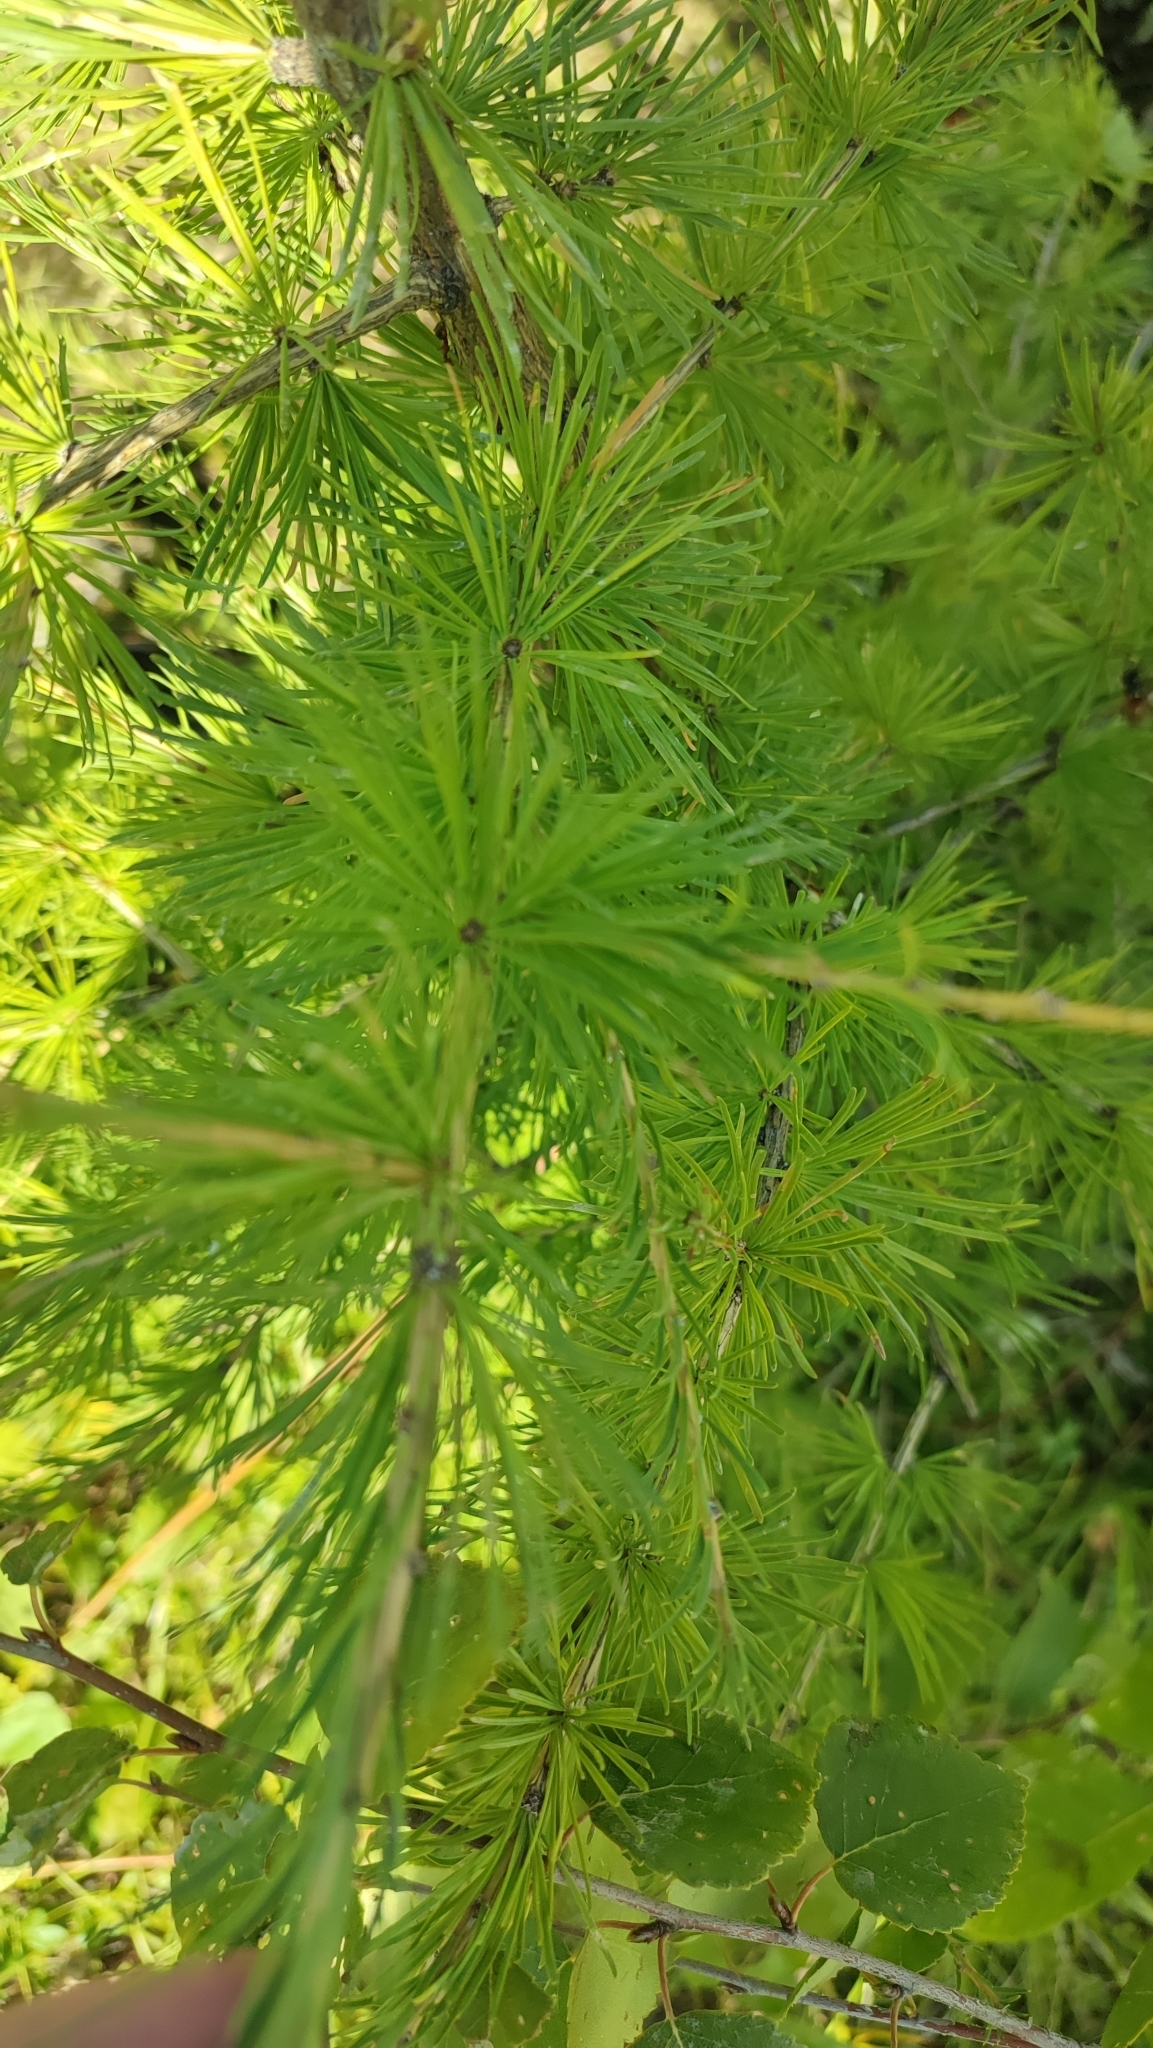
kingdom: Plantae
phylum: Tracheophyta
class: Pinopsida
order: Pinales
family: Pinaceae
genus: Larix
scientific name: Larix sibirica
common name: Siberian larch
